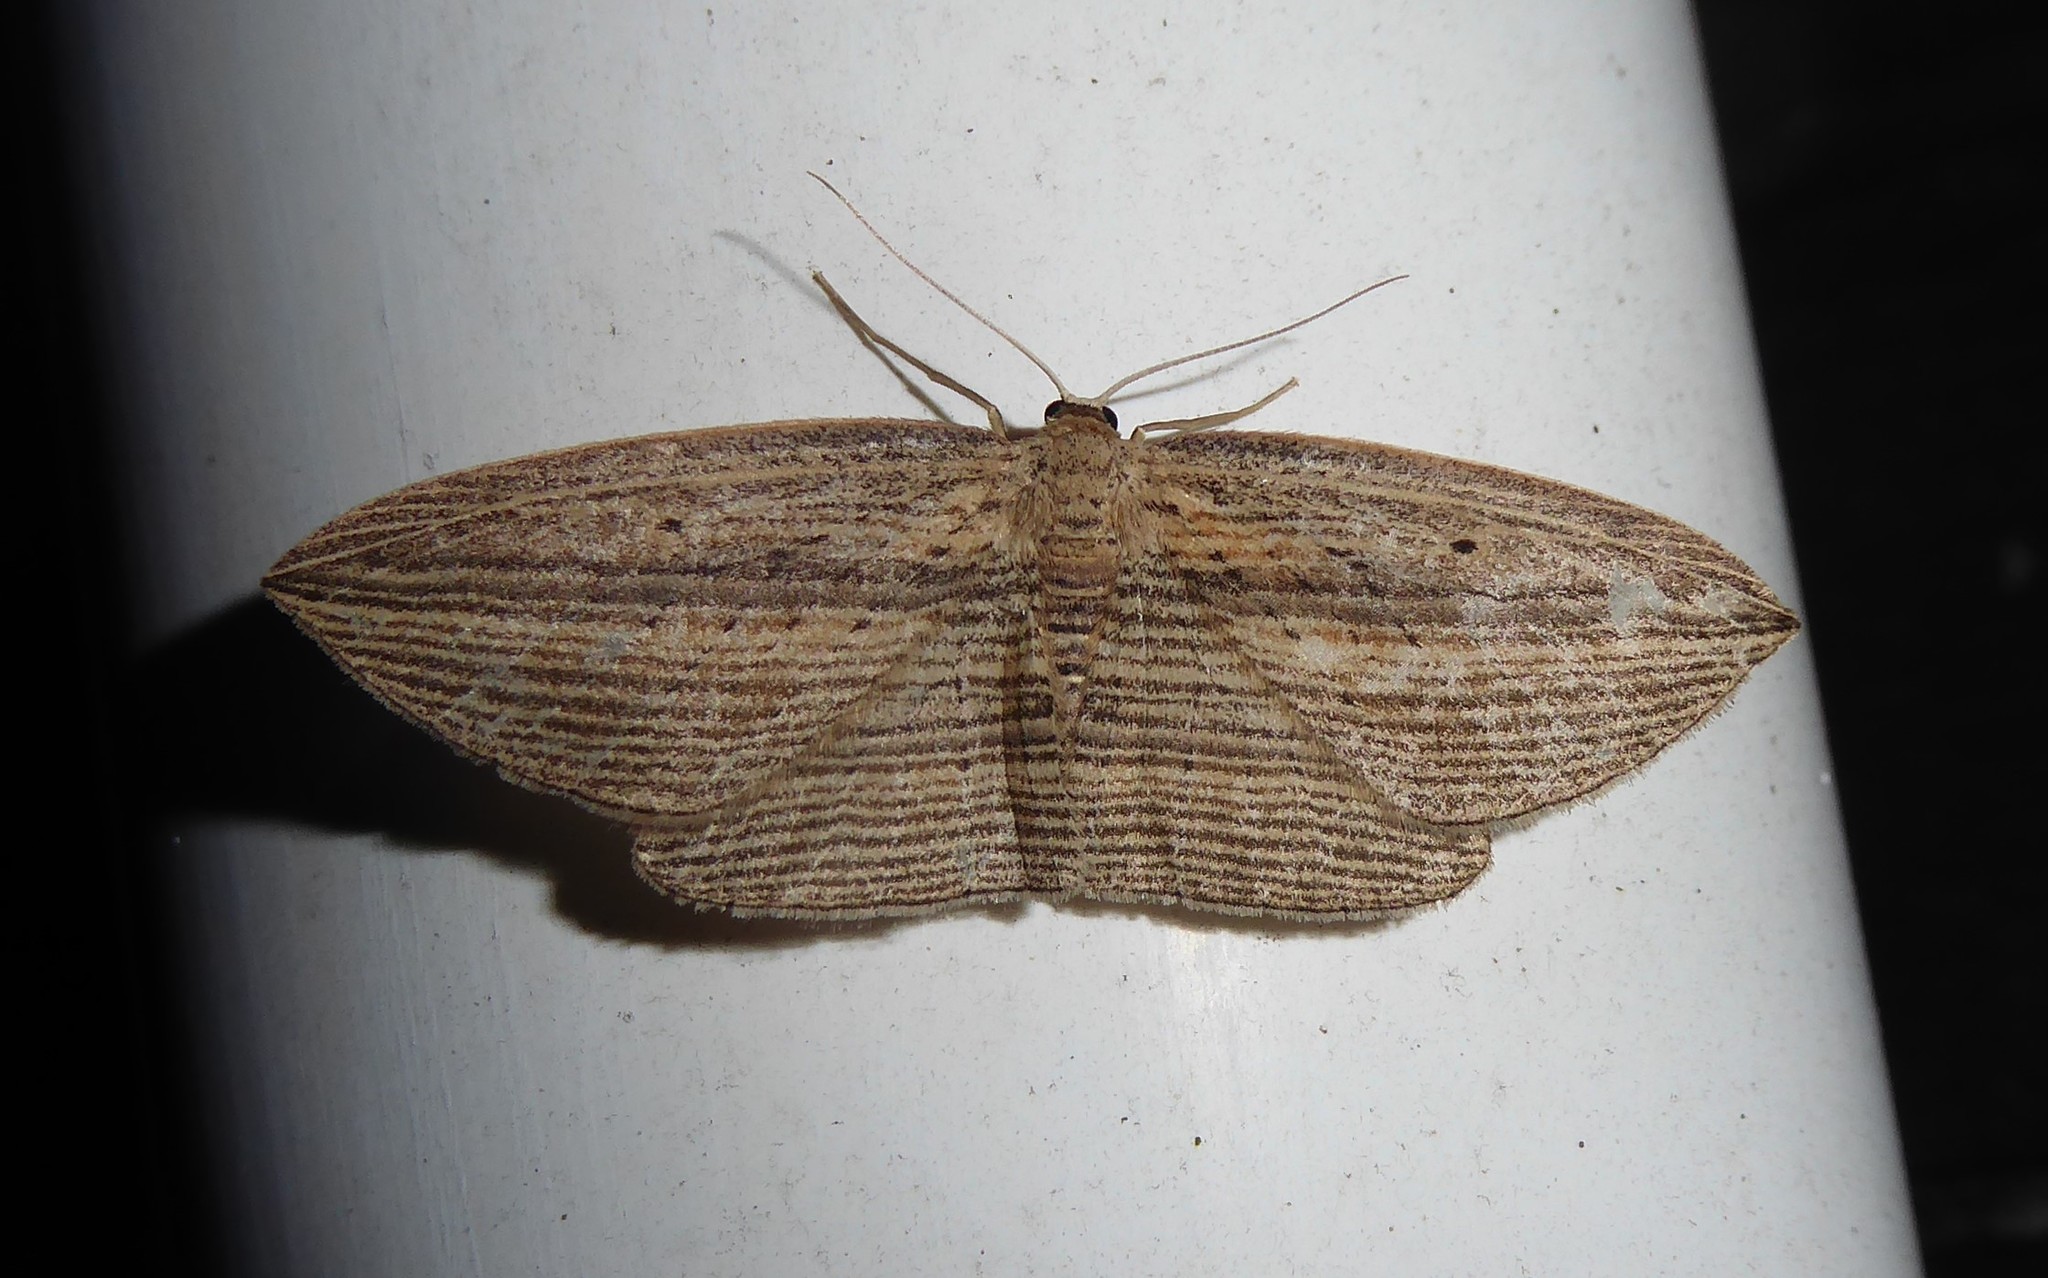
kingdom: Animalia
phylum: Arthropoda
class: Insecta
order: Lepidoptera
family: Geometridae
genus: Epiphryne
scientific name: Epiphryne verriculata
